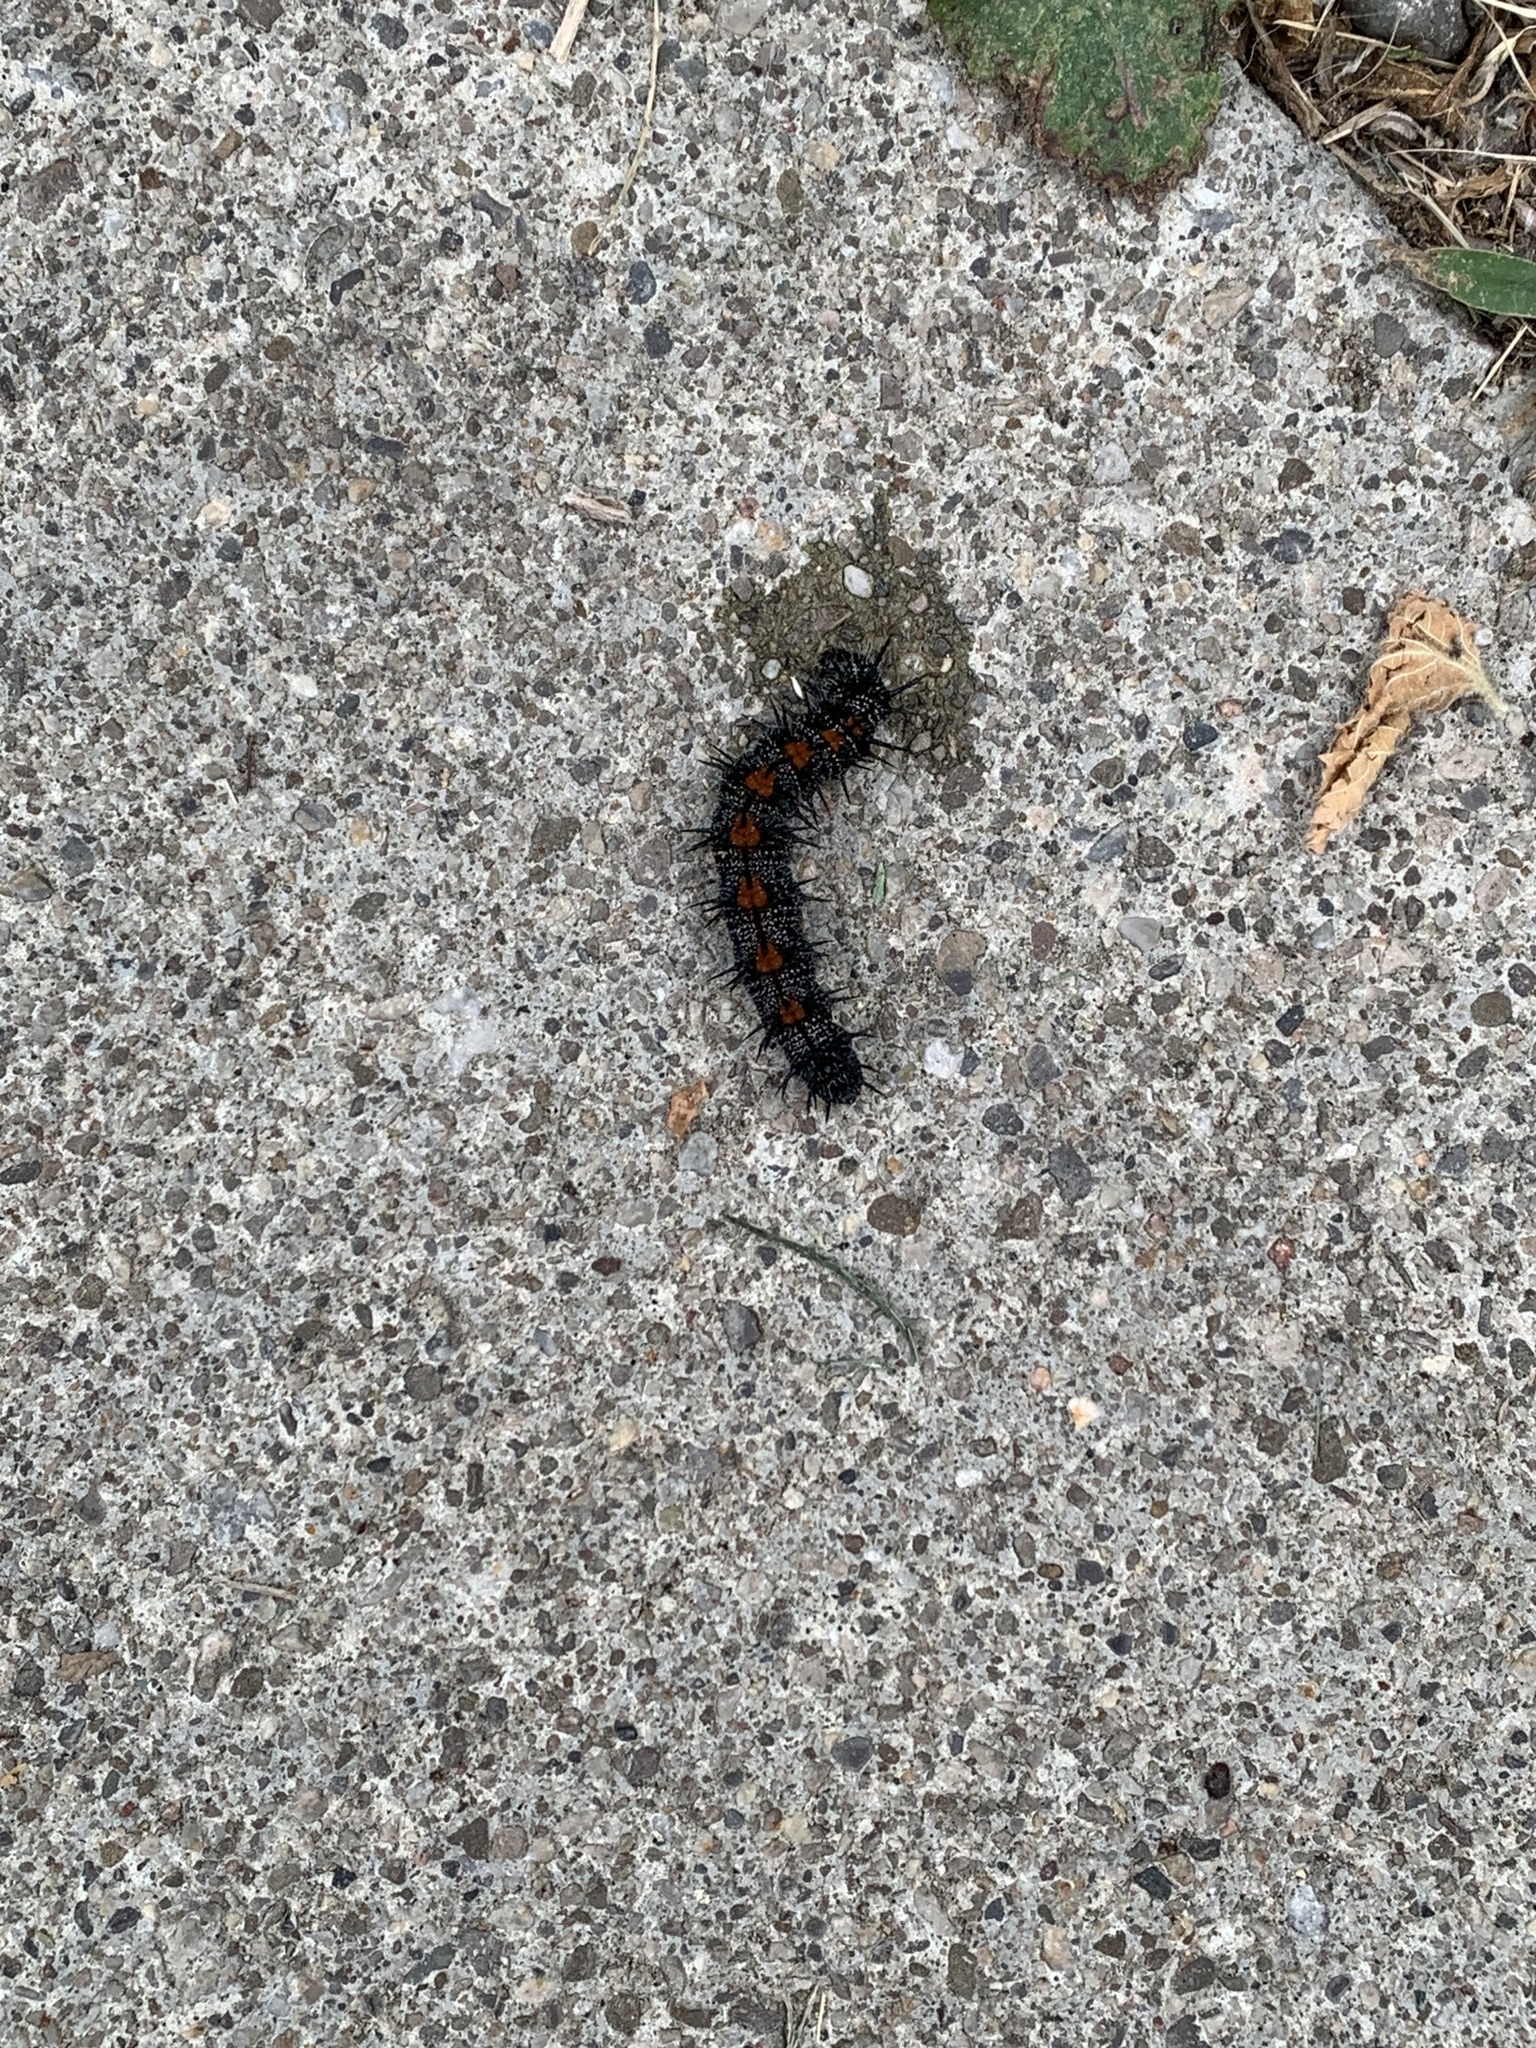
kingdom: Animalia
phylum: Arthropoda
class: Insecta
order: Lepidoptera
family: Nymphalidae
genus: Nymphalis
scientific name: Nymphalis antiopa
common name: Camberwell beauty
